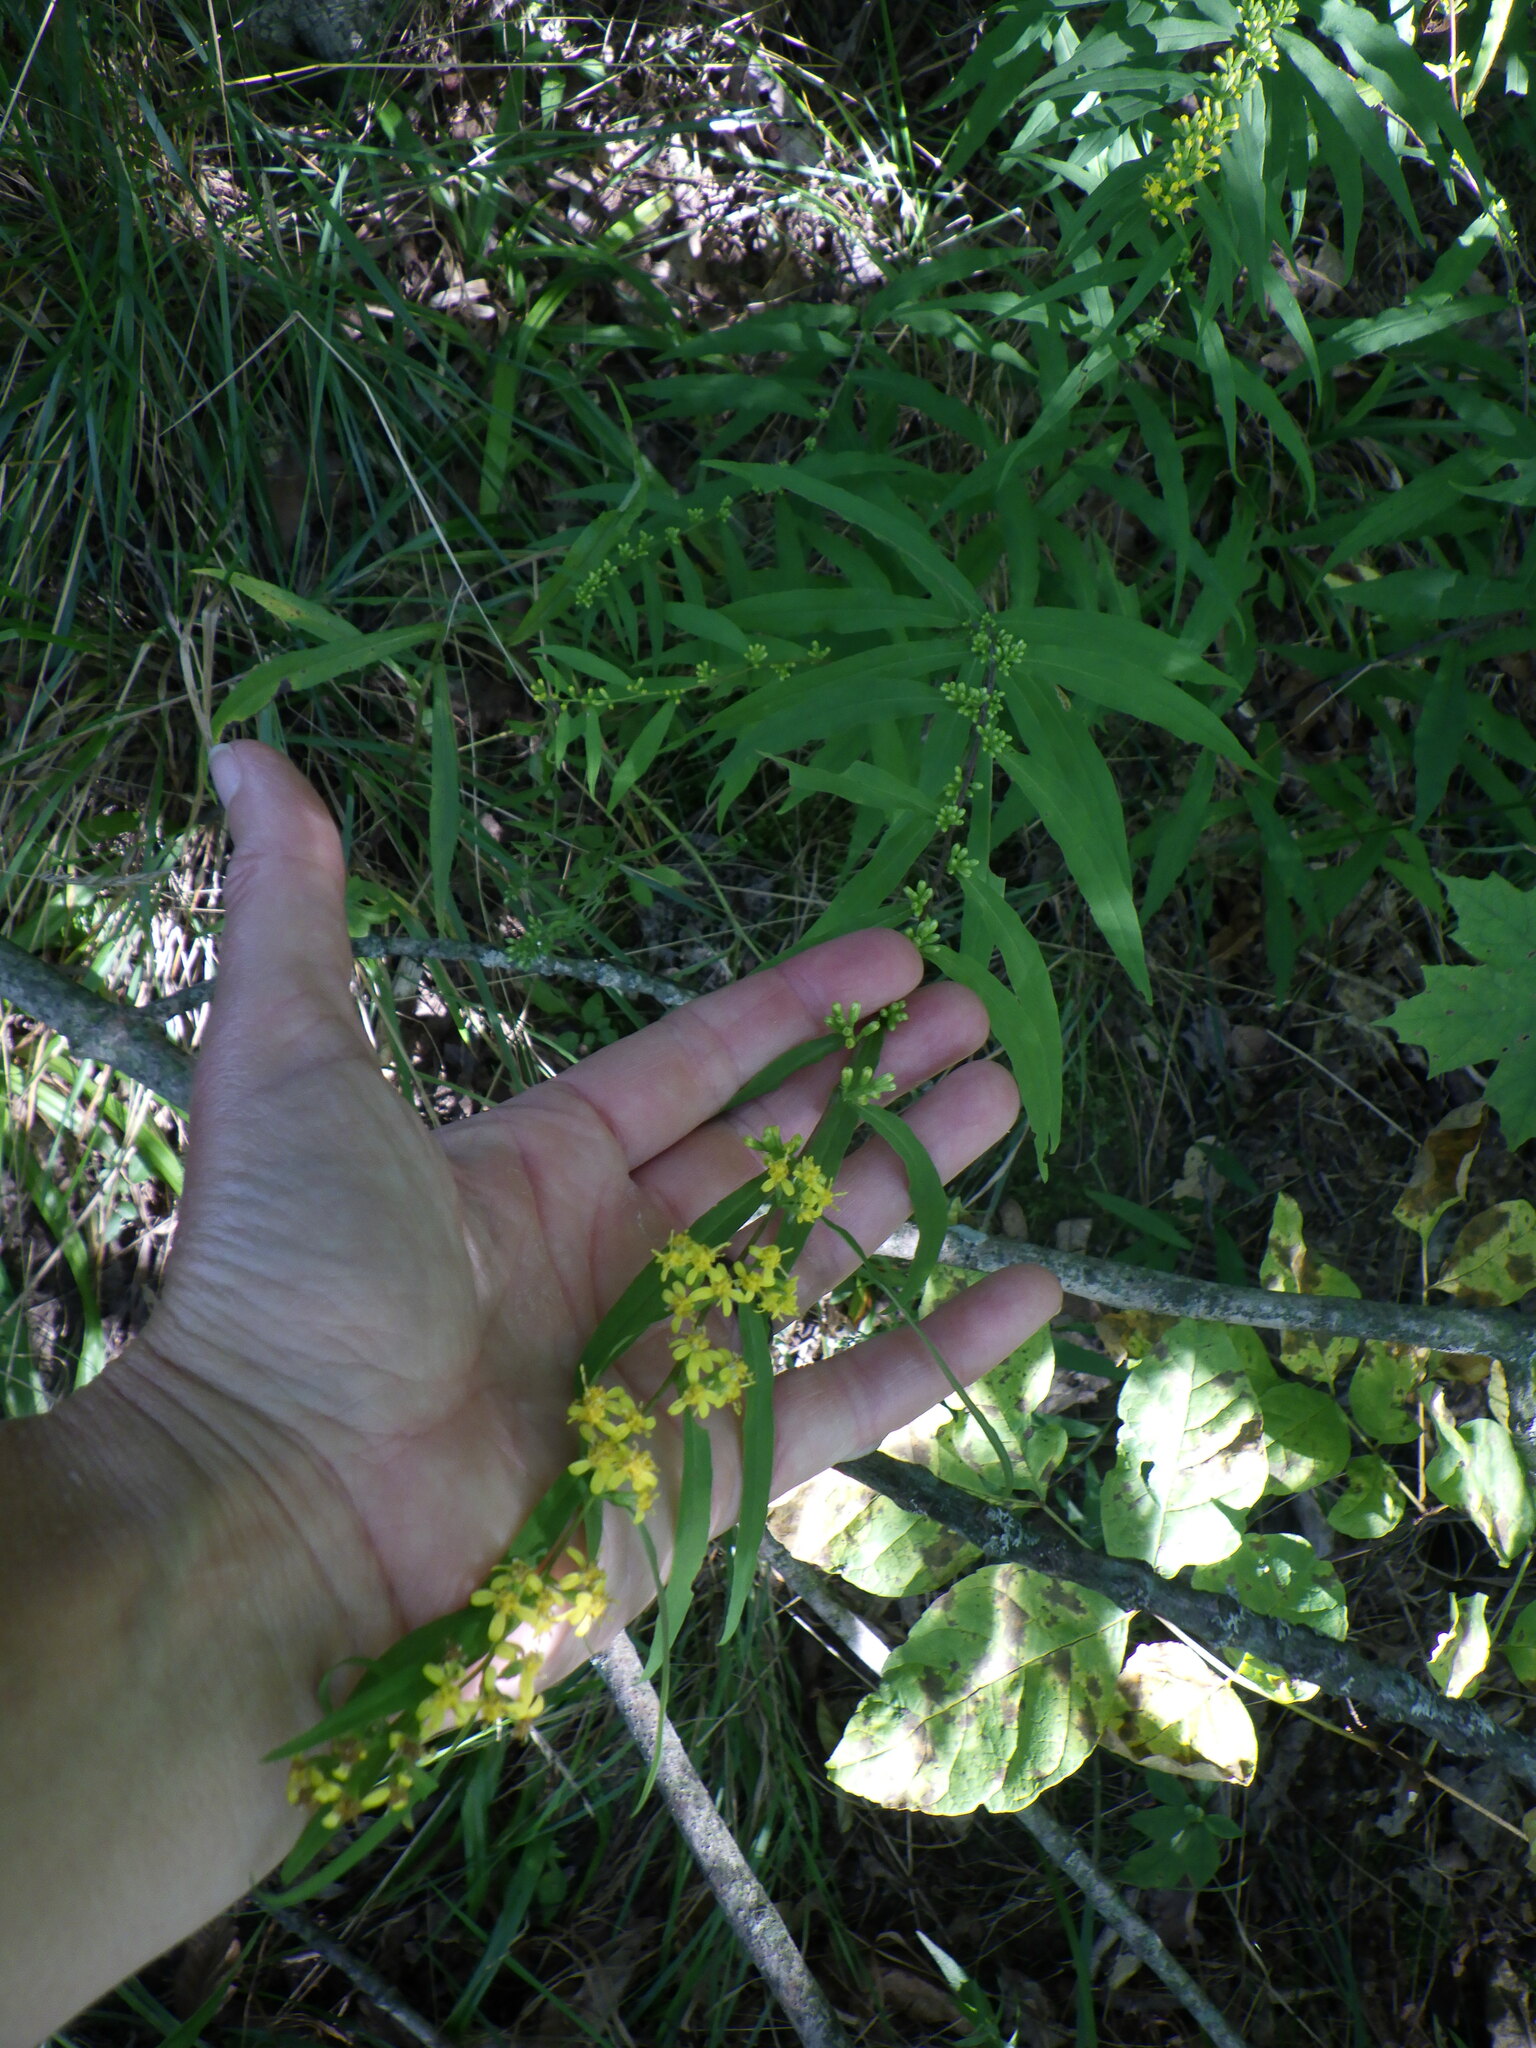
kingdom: Plantae
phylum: Tracheophyta
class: Magnoliopsida
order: Asterales
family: Asteraceae
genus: Solidago
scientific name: Solidago caesia
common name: Woodland goldenrod
